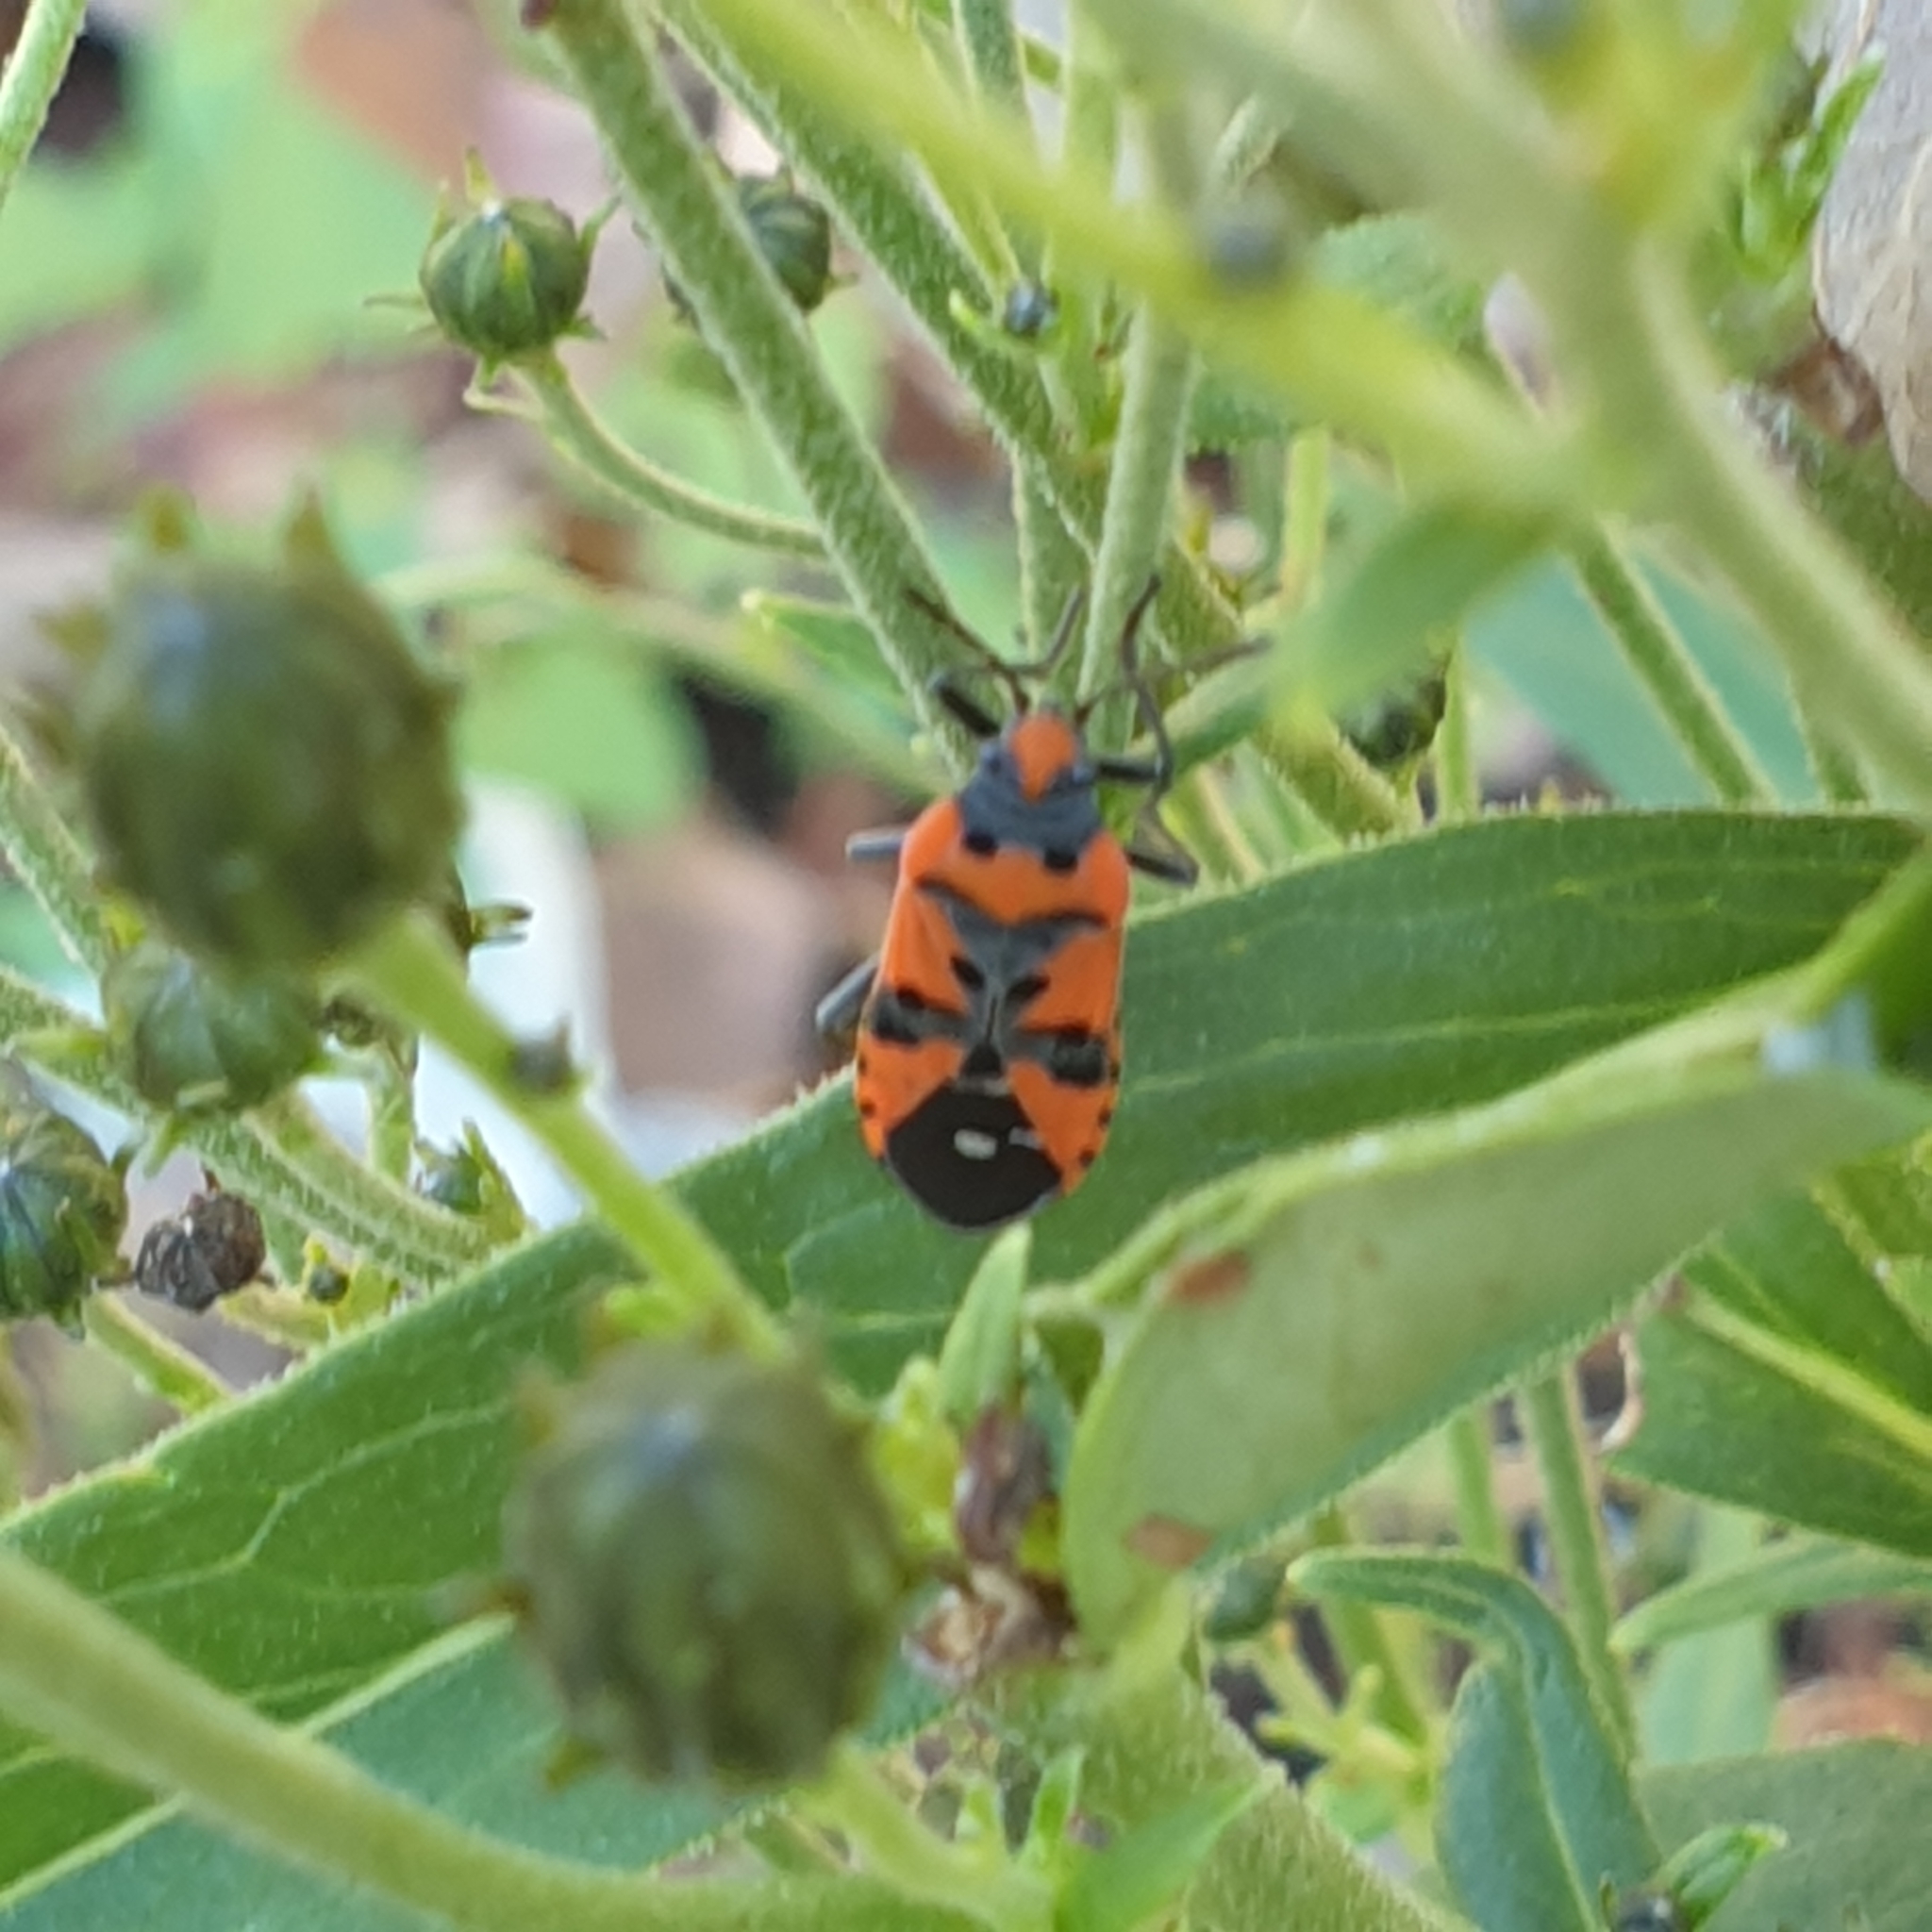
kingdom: Animalia
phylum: Arthropoda
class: Insecta
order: Hemiptera
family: Lygaeidae
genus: Lygaeus
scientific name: Lygaeus equestris
